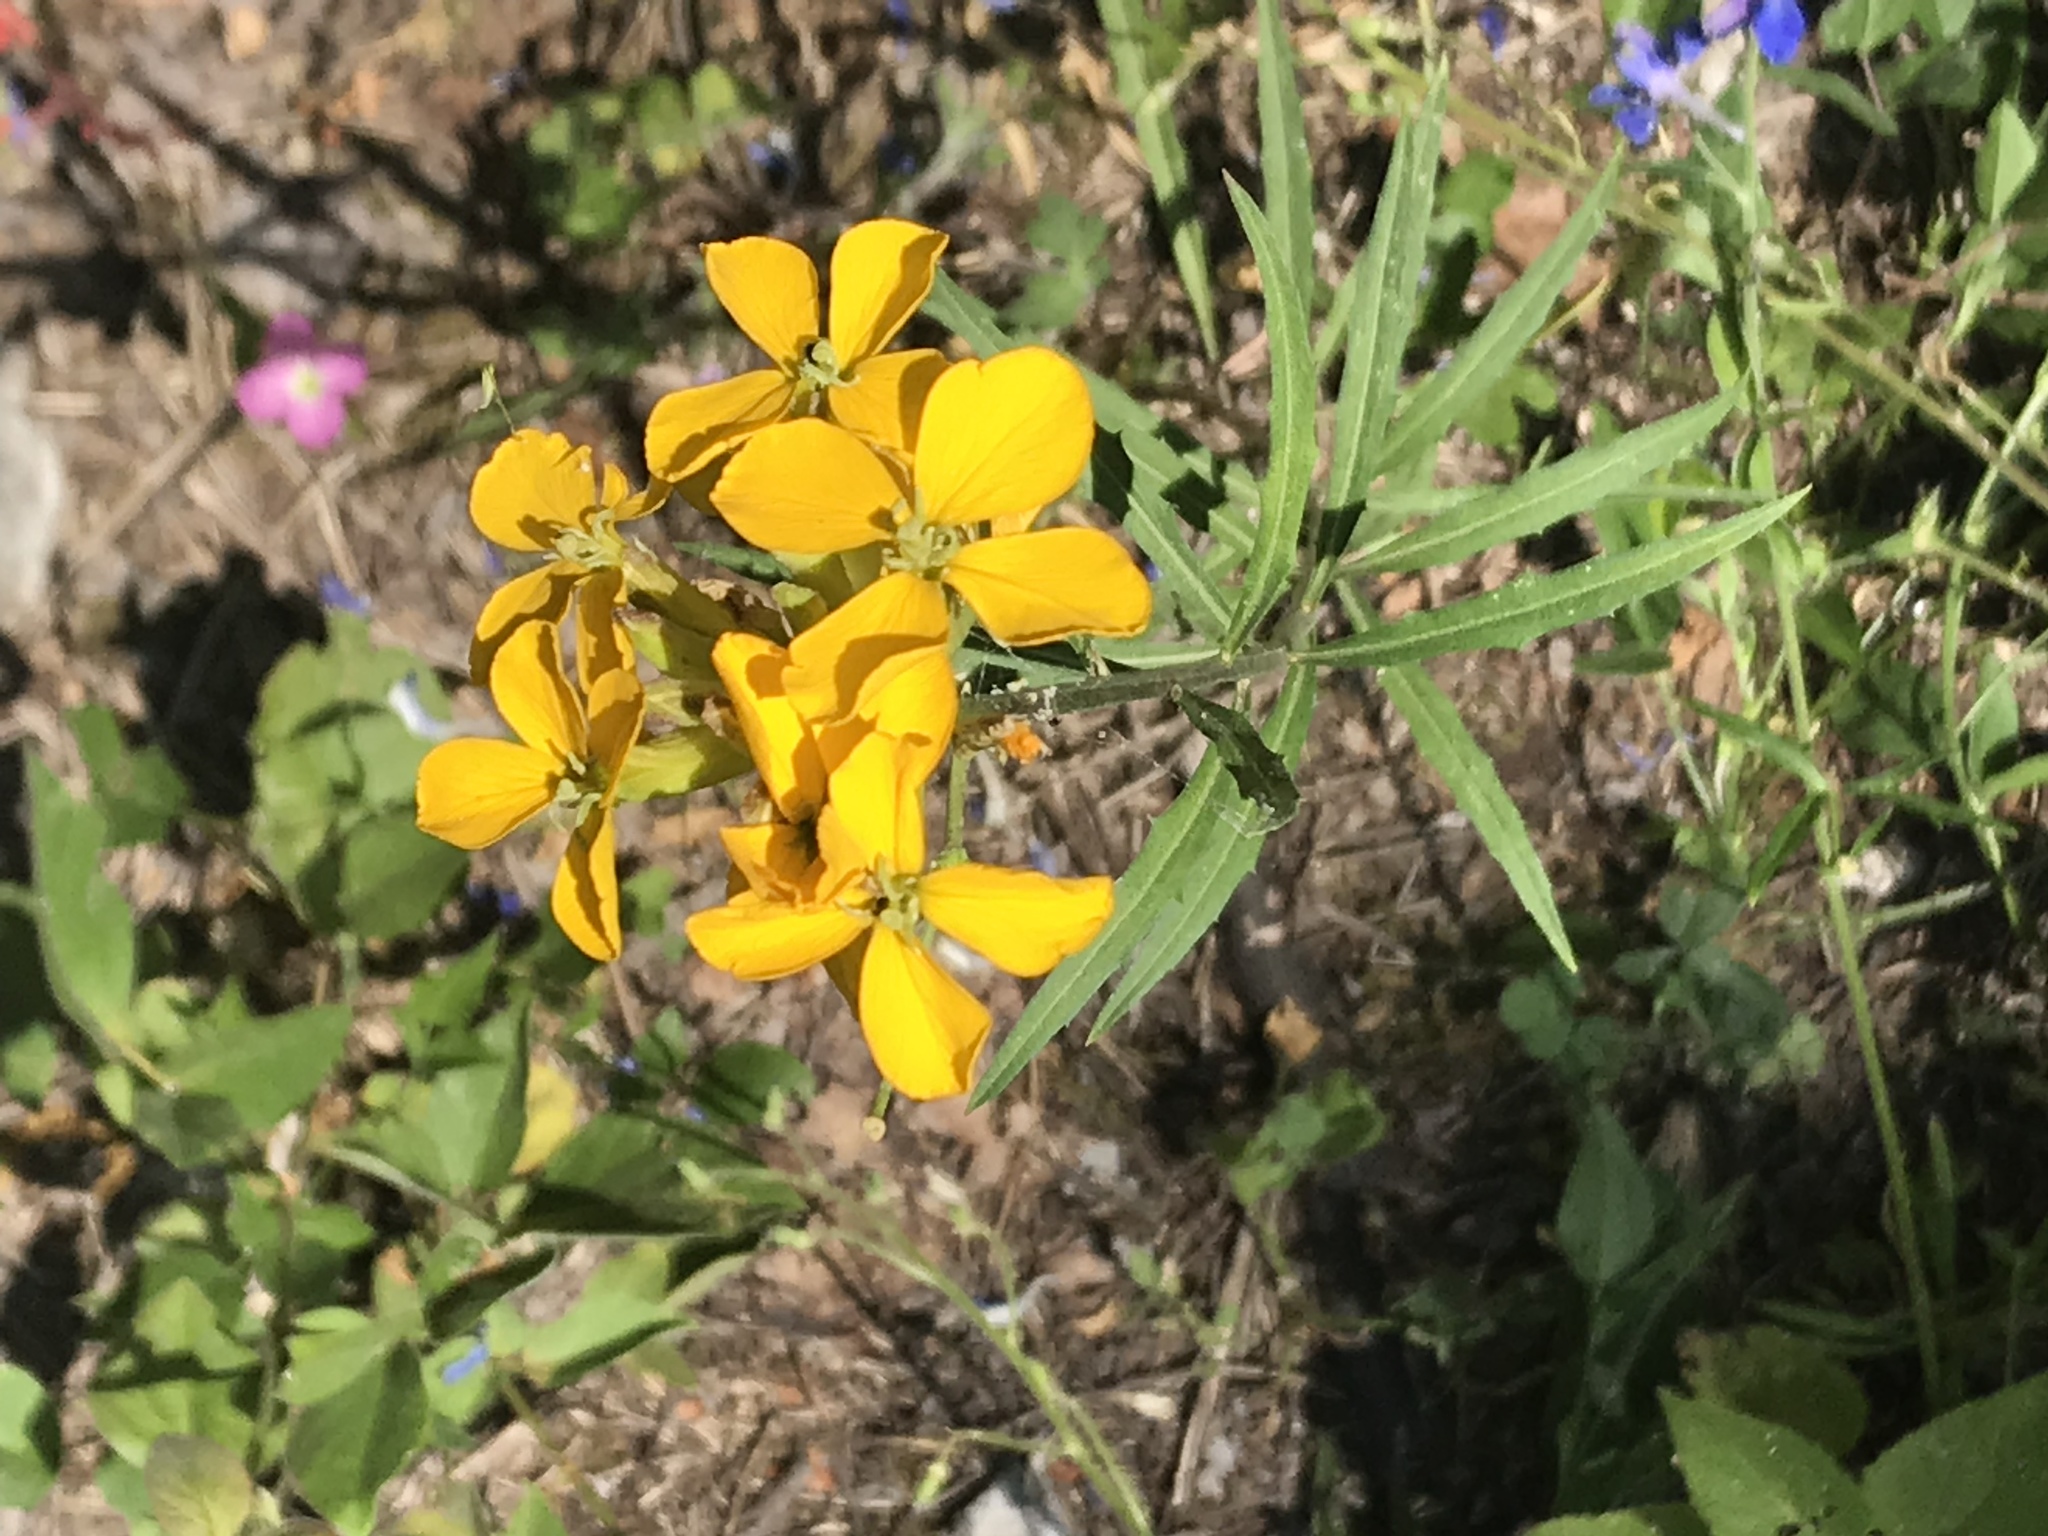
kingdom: Plantae
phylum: Tracheophyta
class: Magnoliopsida
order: Brassicales
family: Brassicaceae
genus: Erysimum
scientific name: Erysimum capitatum
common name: Western wallflower
